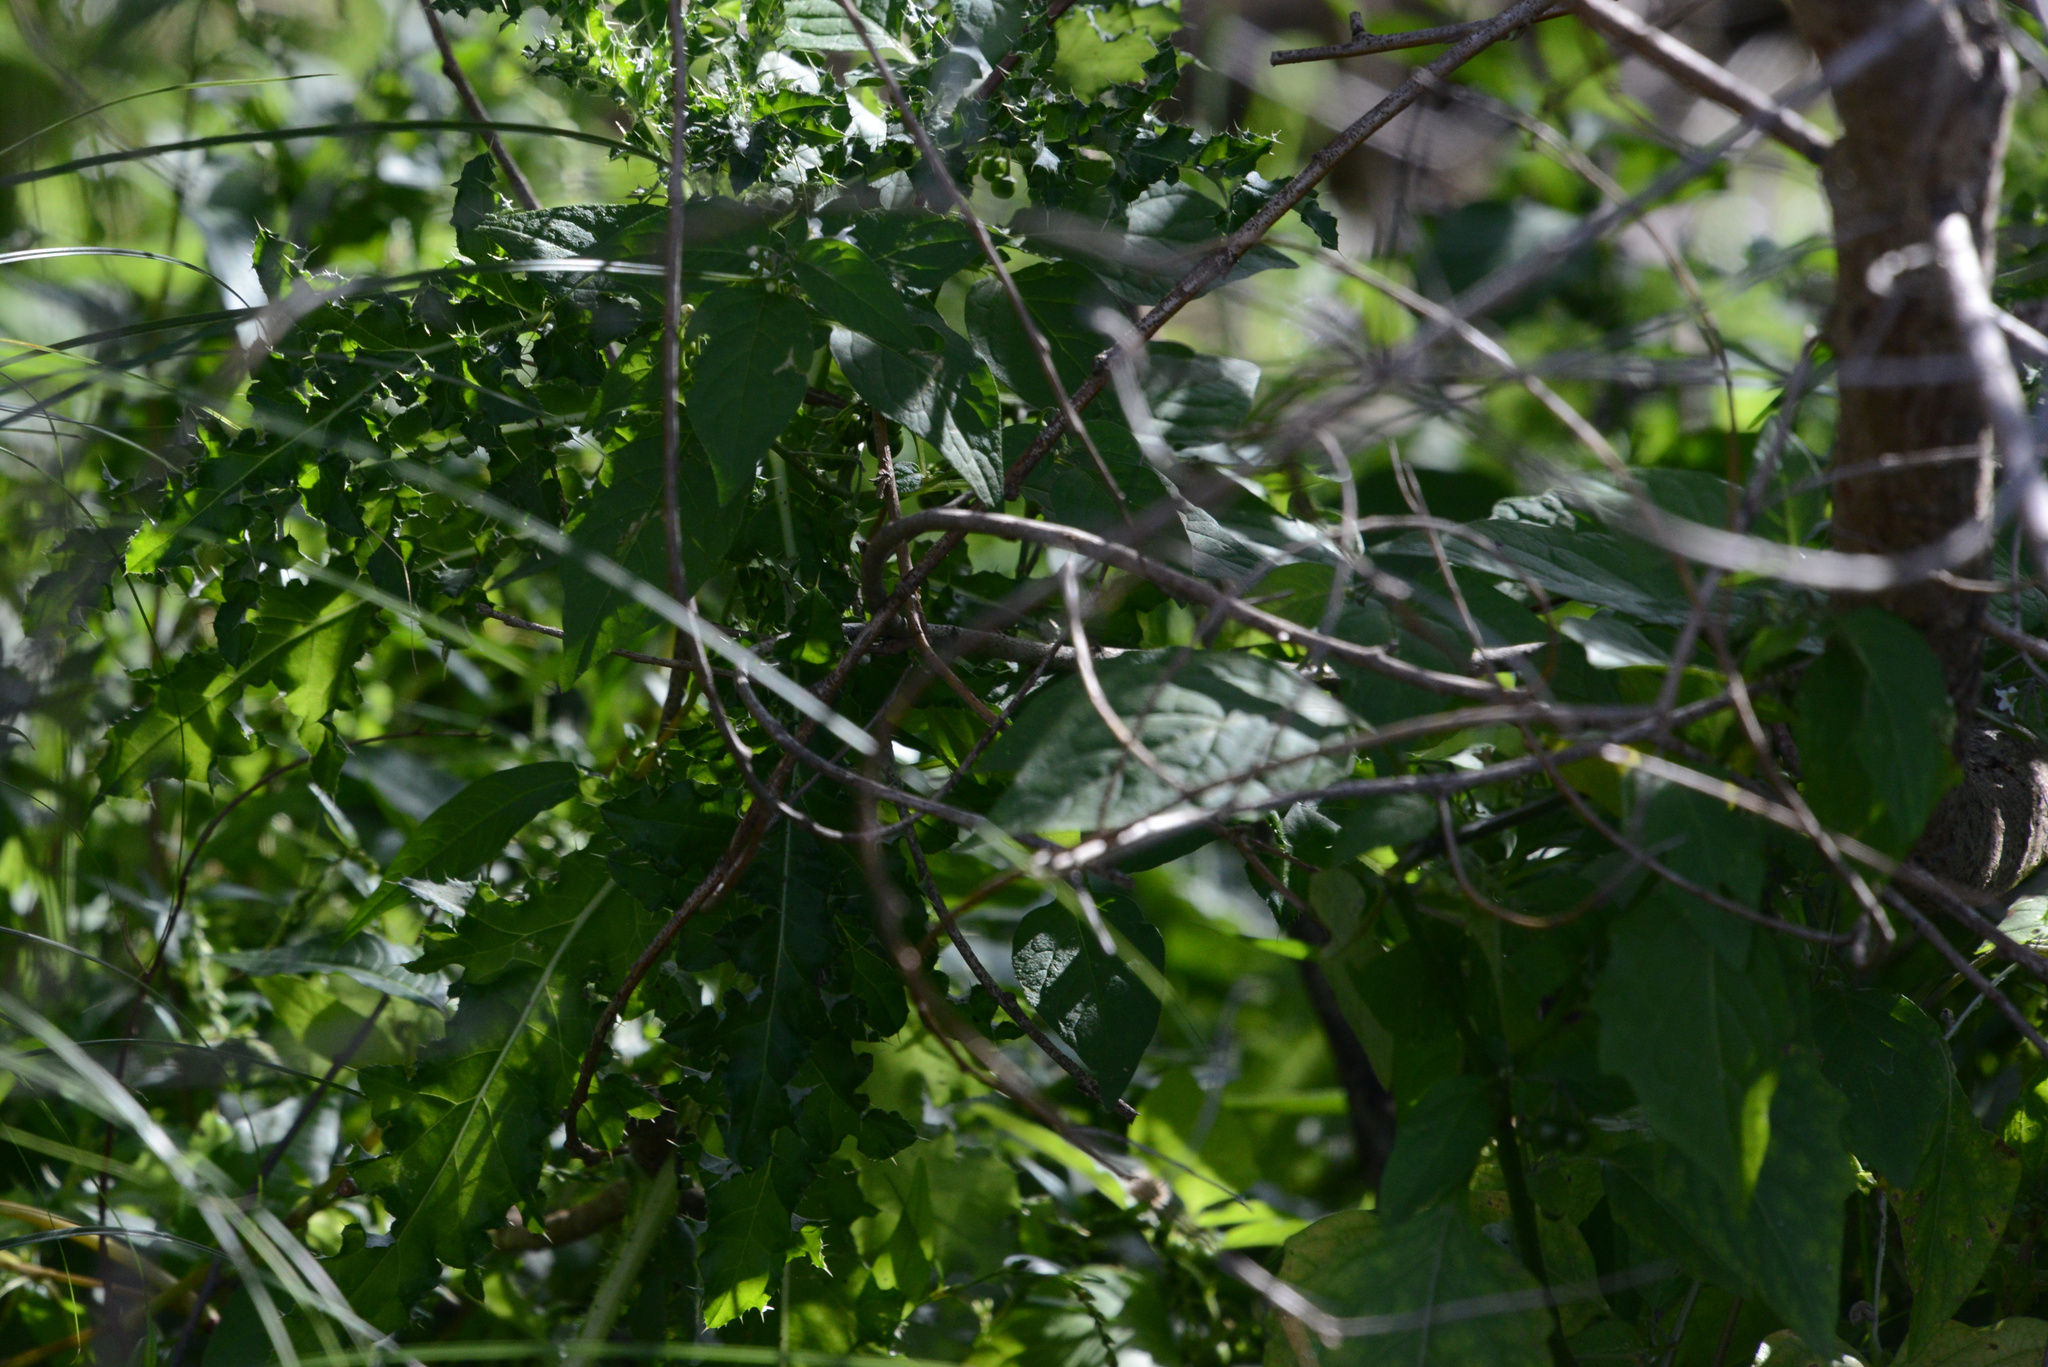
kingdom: Plantae
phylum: Tracheophyta
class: Magnoliopsida
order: Solanales
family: Solanaceae
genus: Solanum
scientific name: Solanum dulcamara
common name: Climbing nightshade
